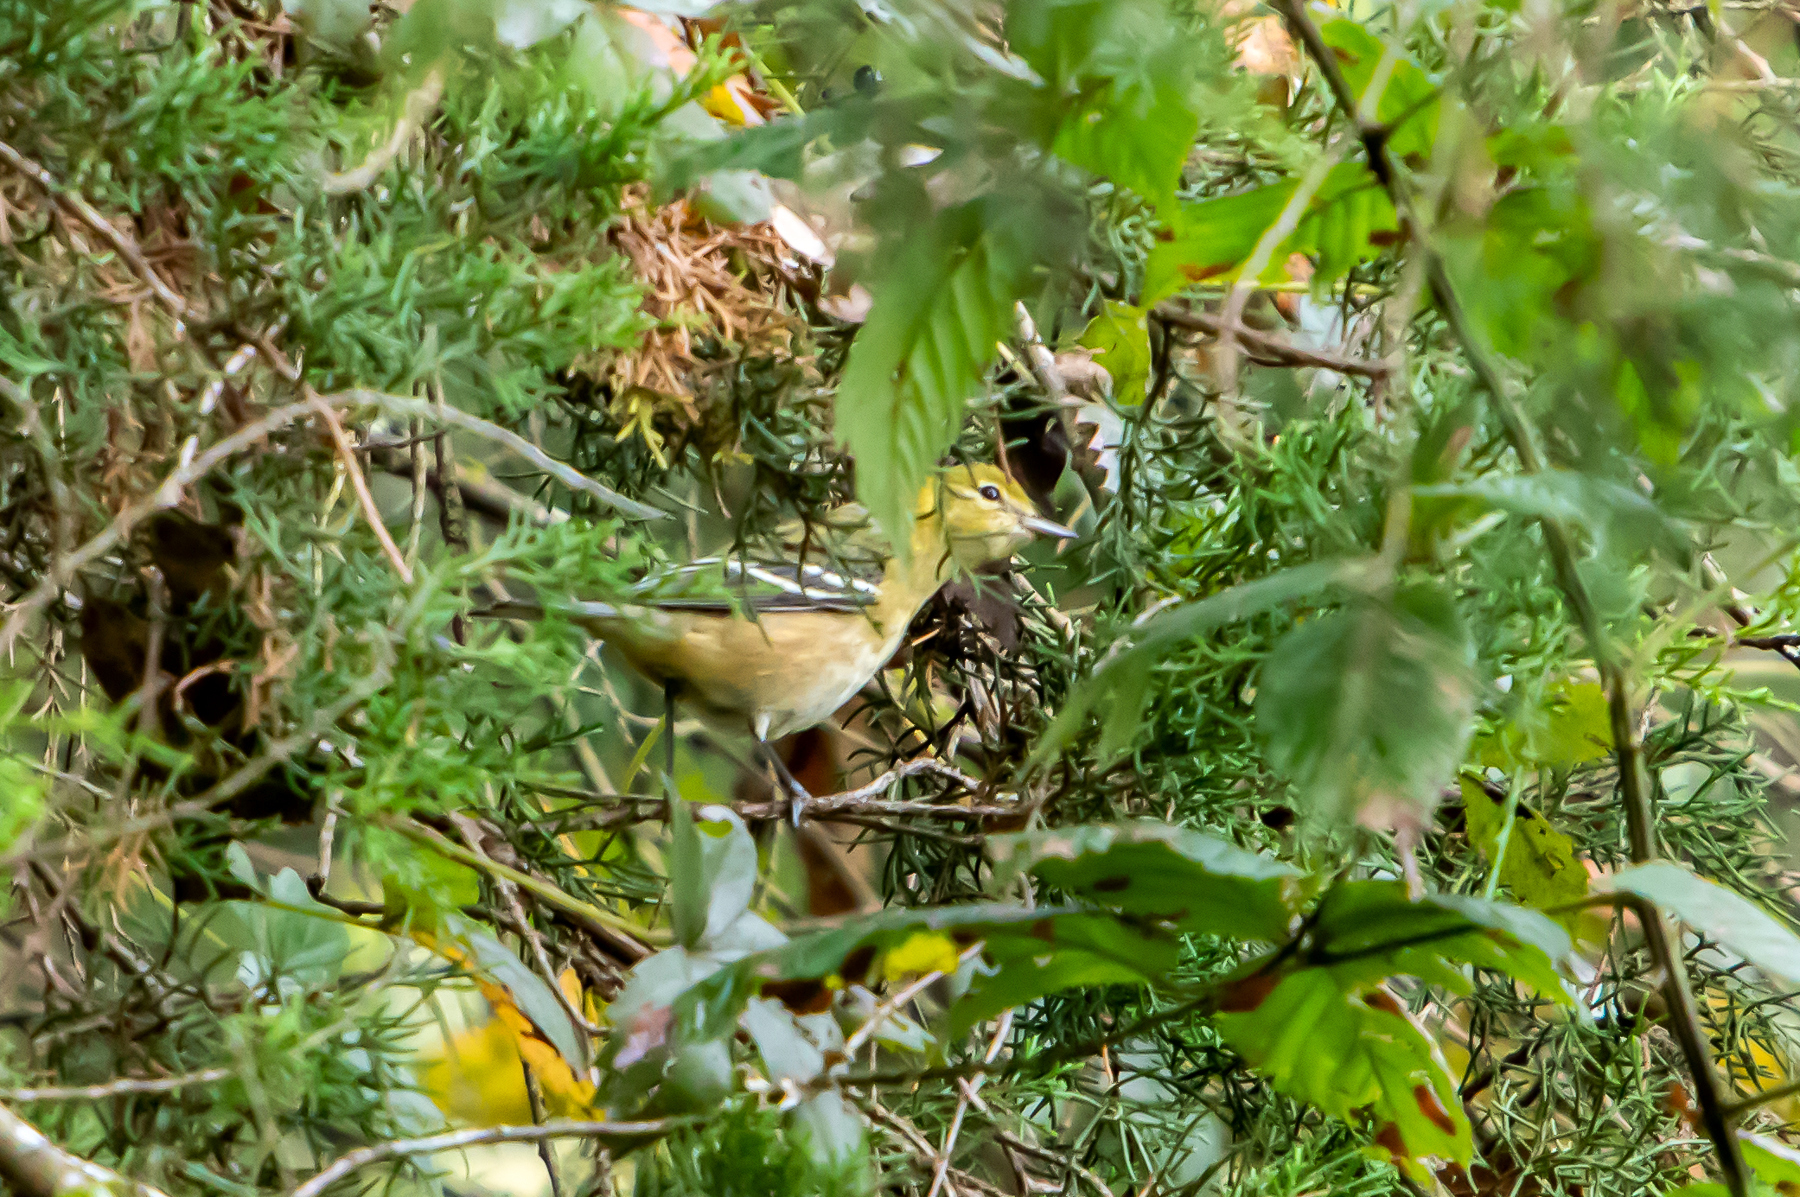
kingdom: Animalia
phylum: Chordata
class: Aves
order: Passeriformes
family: Parulidae
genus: Setophaga
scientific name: Setophaga castanea
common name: Bay-breasted warbler
